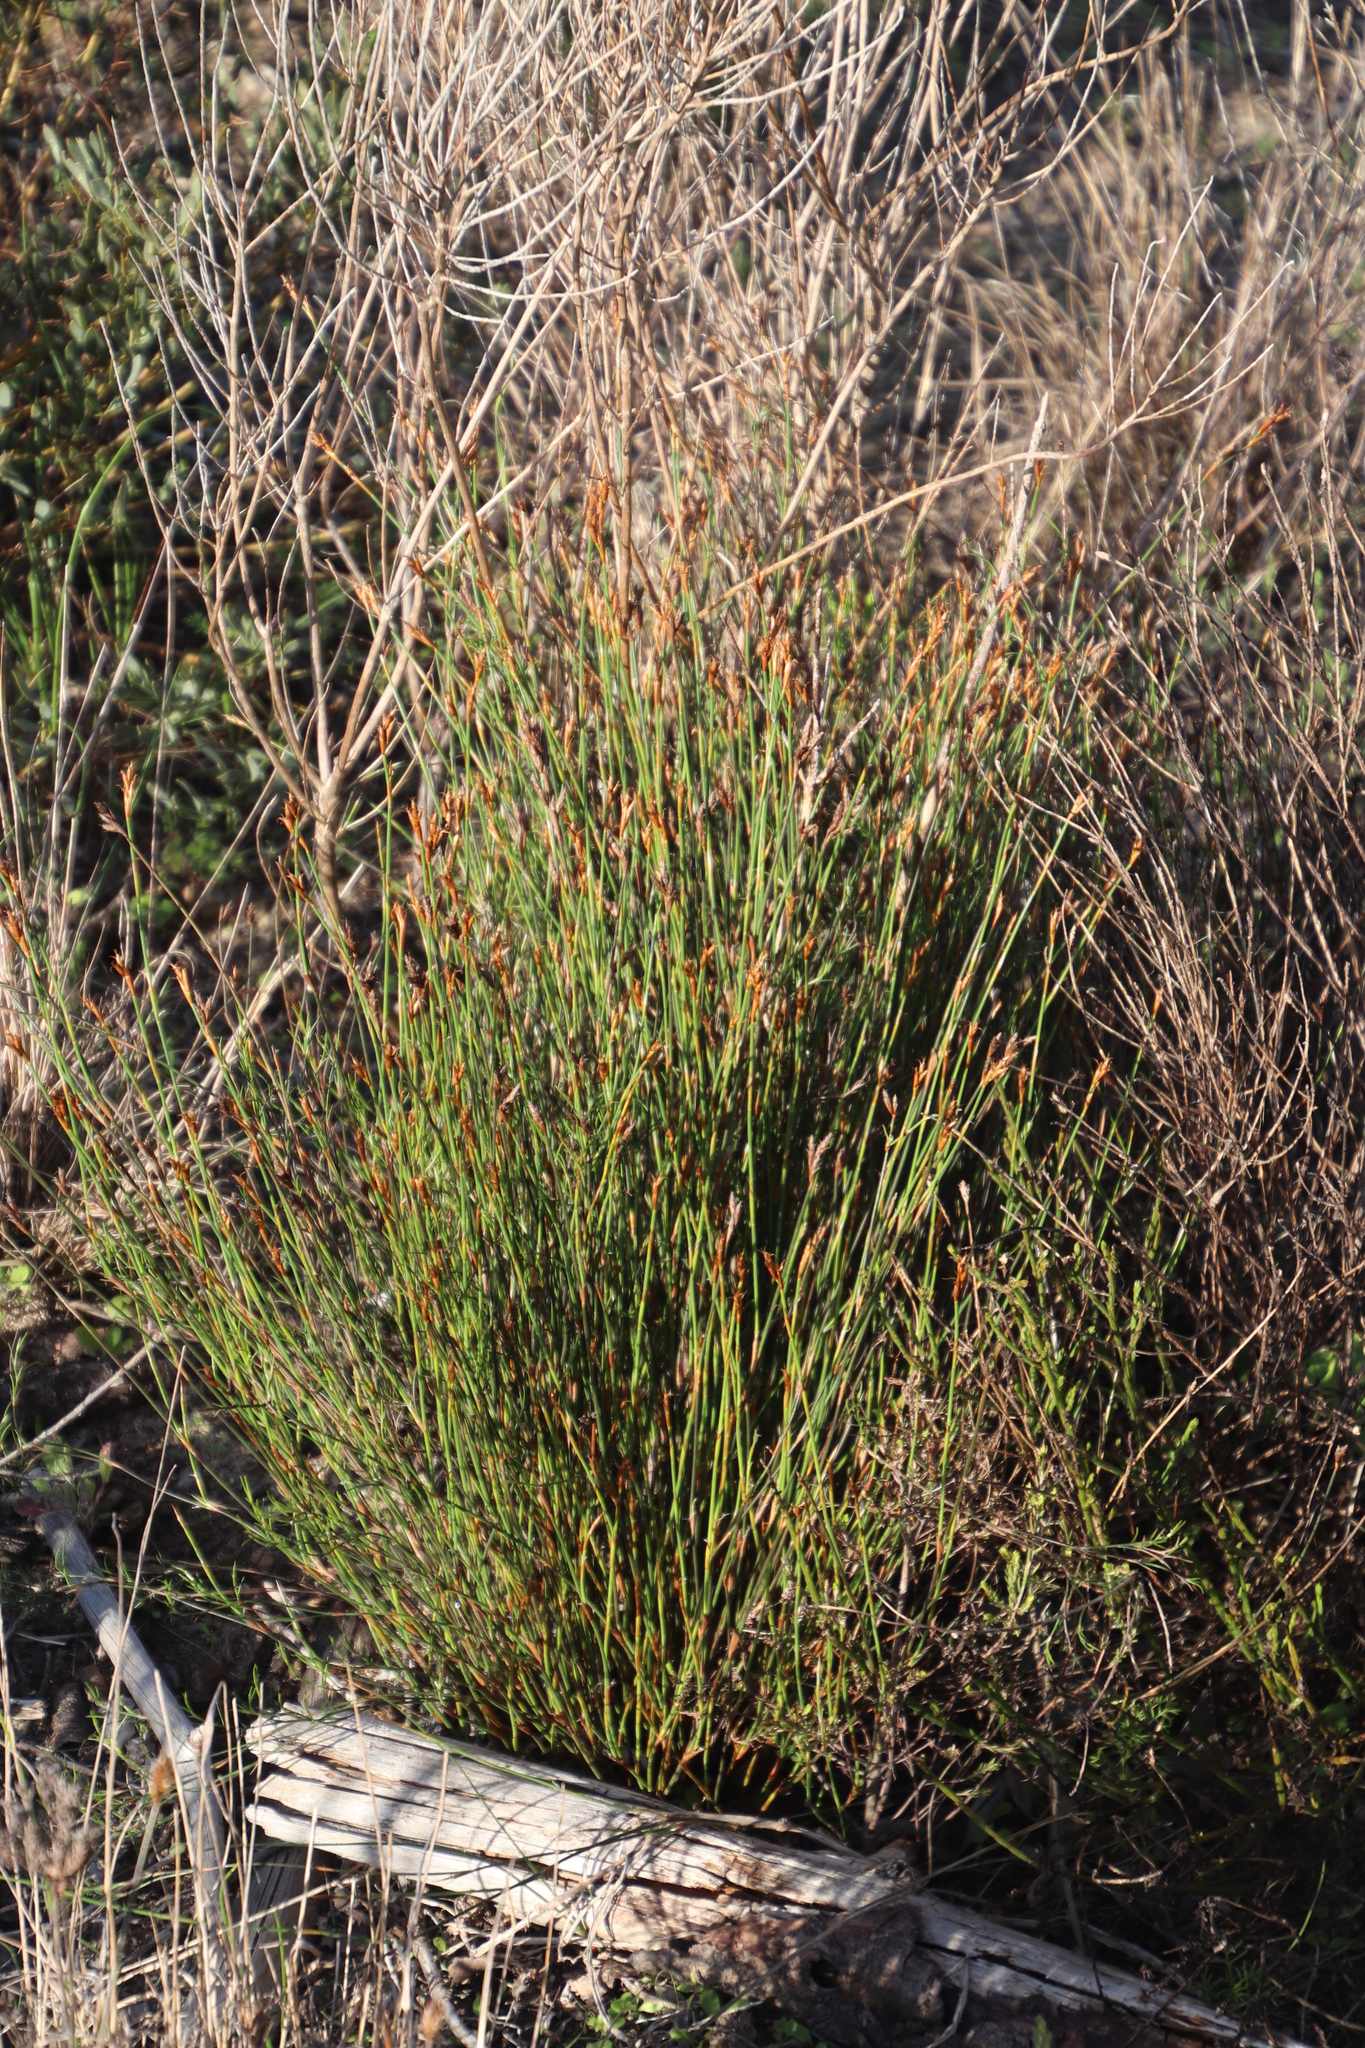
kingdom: Plantae
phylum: Tracheophyta
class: Liliopsida
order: Poales
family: Restionaceae
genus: Restio
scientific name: Restio capensis
